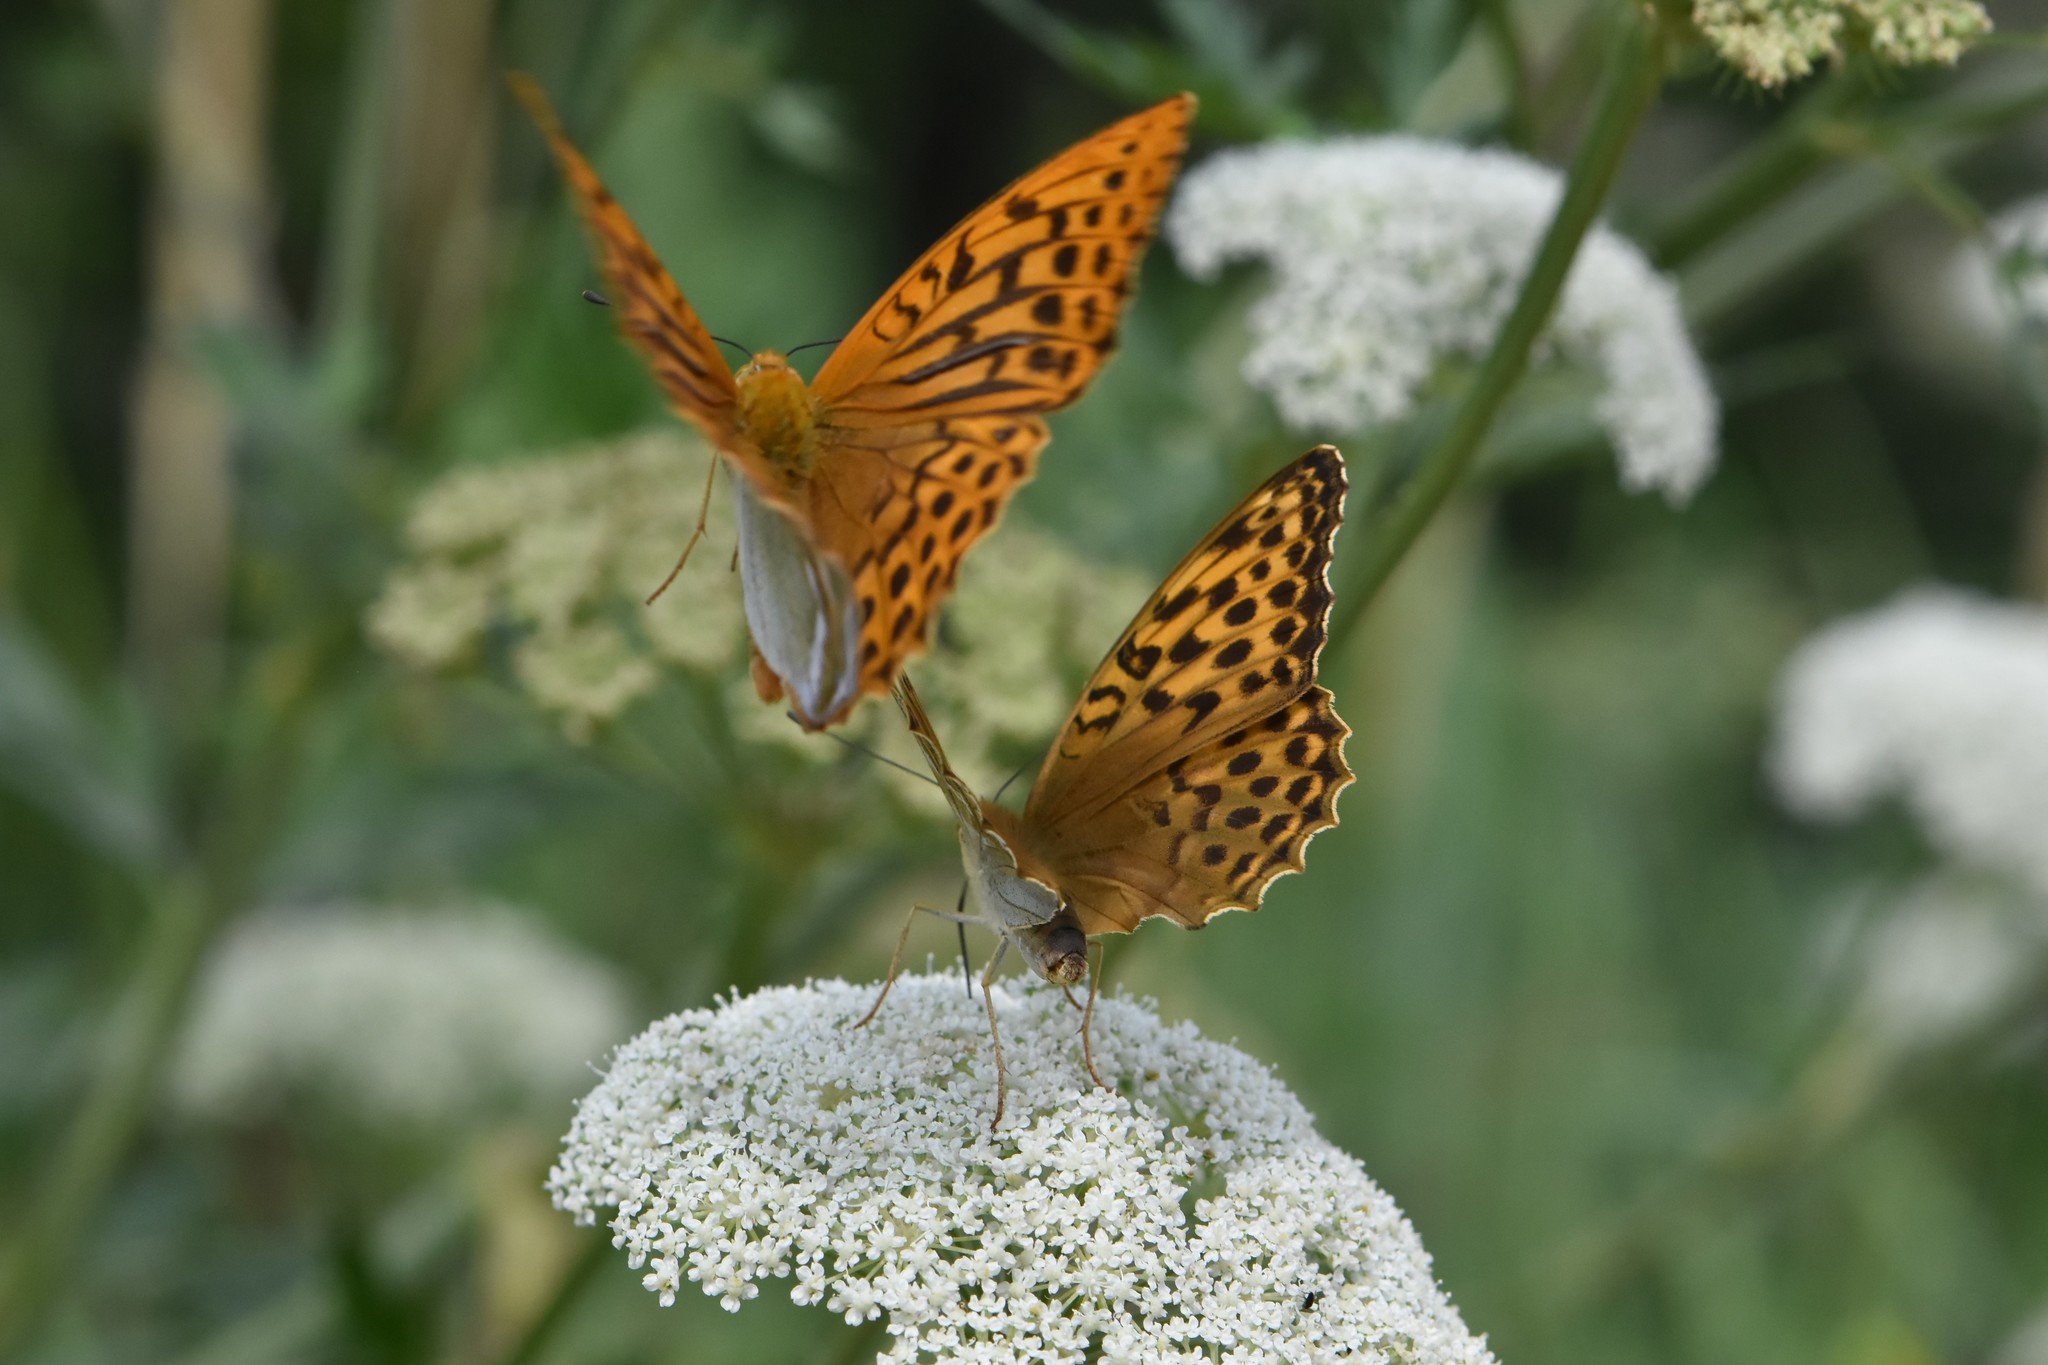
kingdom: Animalia
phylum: Arthropoda
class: Insecta
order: Lepidoptera
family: Nymphalidae
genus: Argynnis
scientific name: Argynnis paphia
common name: Silver-washed fritillary
